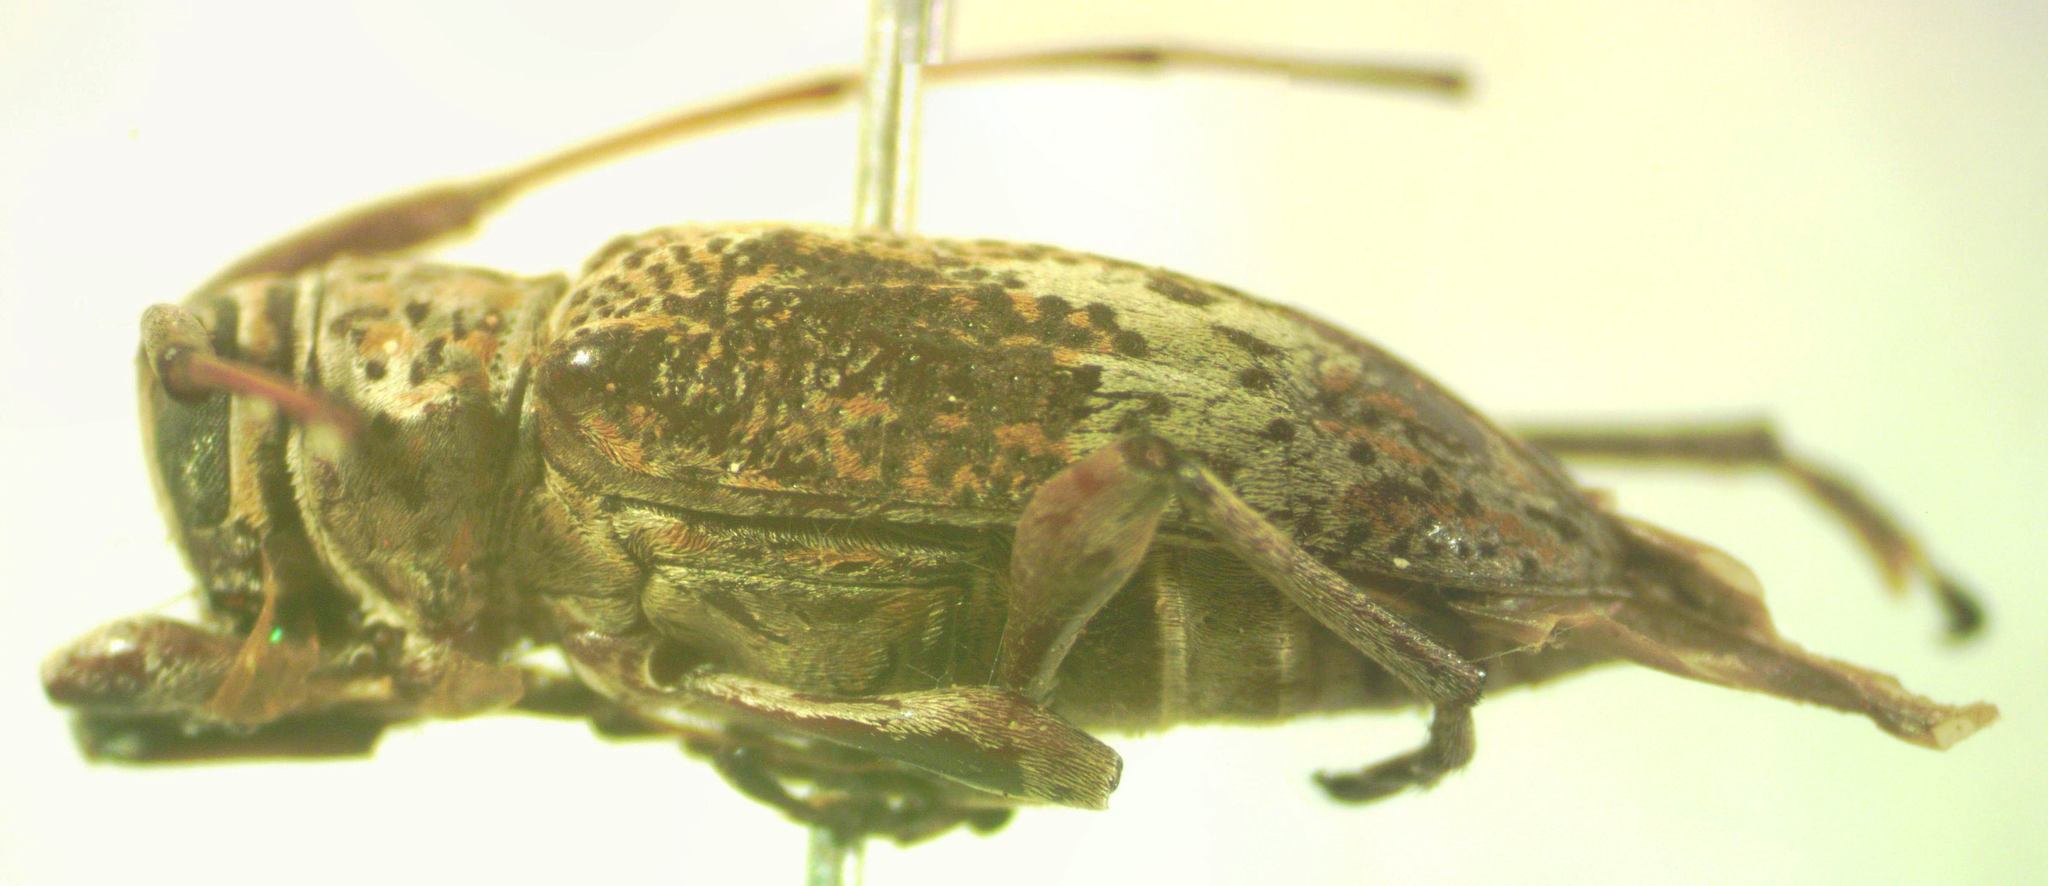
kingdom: Animalia
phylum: Arthropoda
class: Insecta
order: Coleoptera
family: Cerambycidae
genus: Atrypanius
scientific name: Atrypanius conspersus
